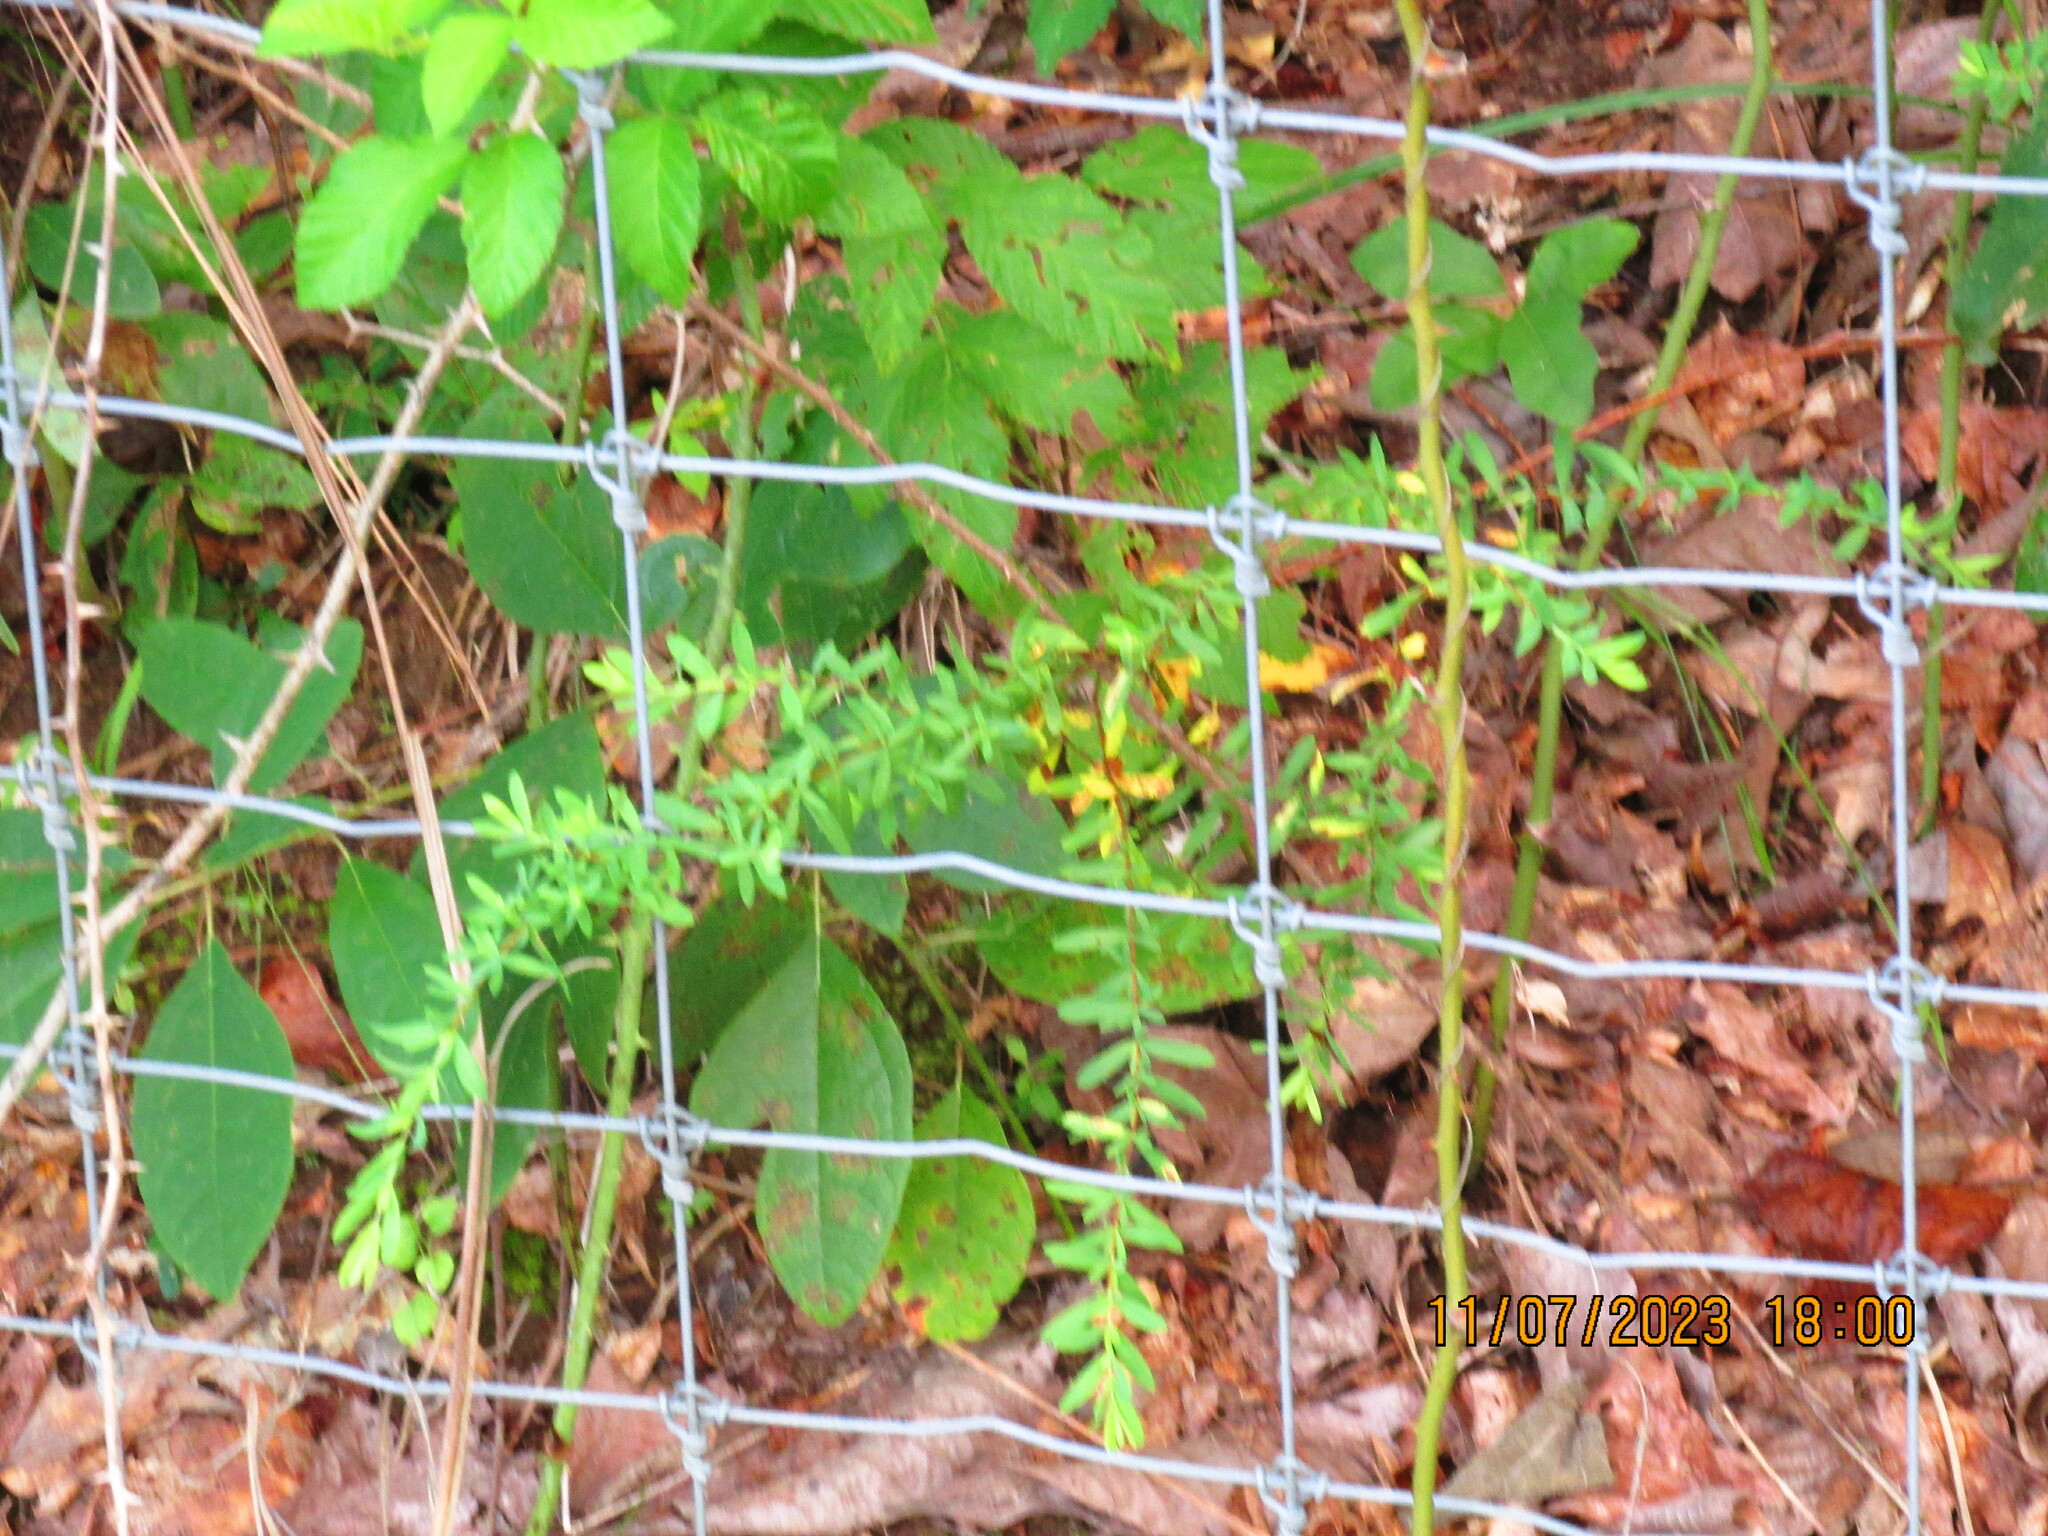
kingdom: Plantae
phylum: Tracheophyta
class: Magnoliopsida
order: Malpighiales
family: Hypericaceae
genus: Hypericum
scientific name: Hypericum hypericoides
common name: St. andrew's cross
